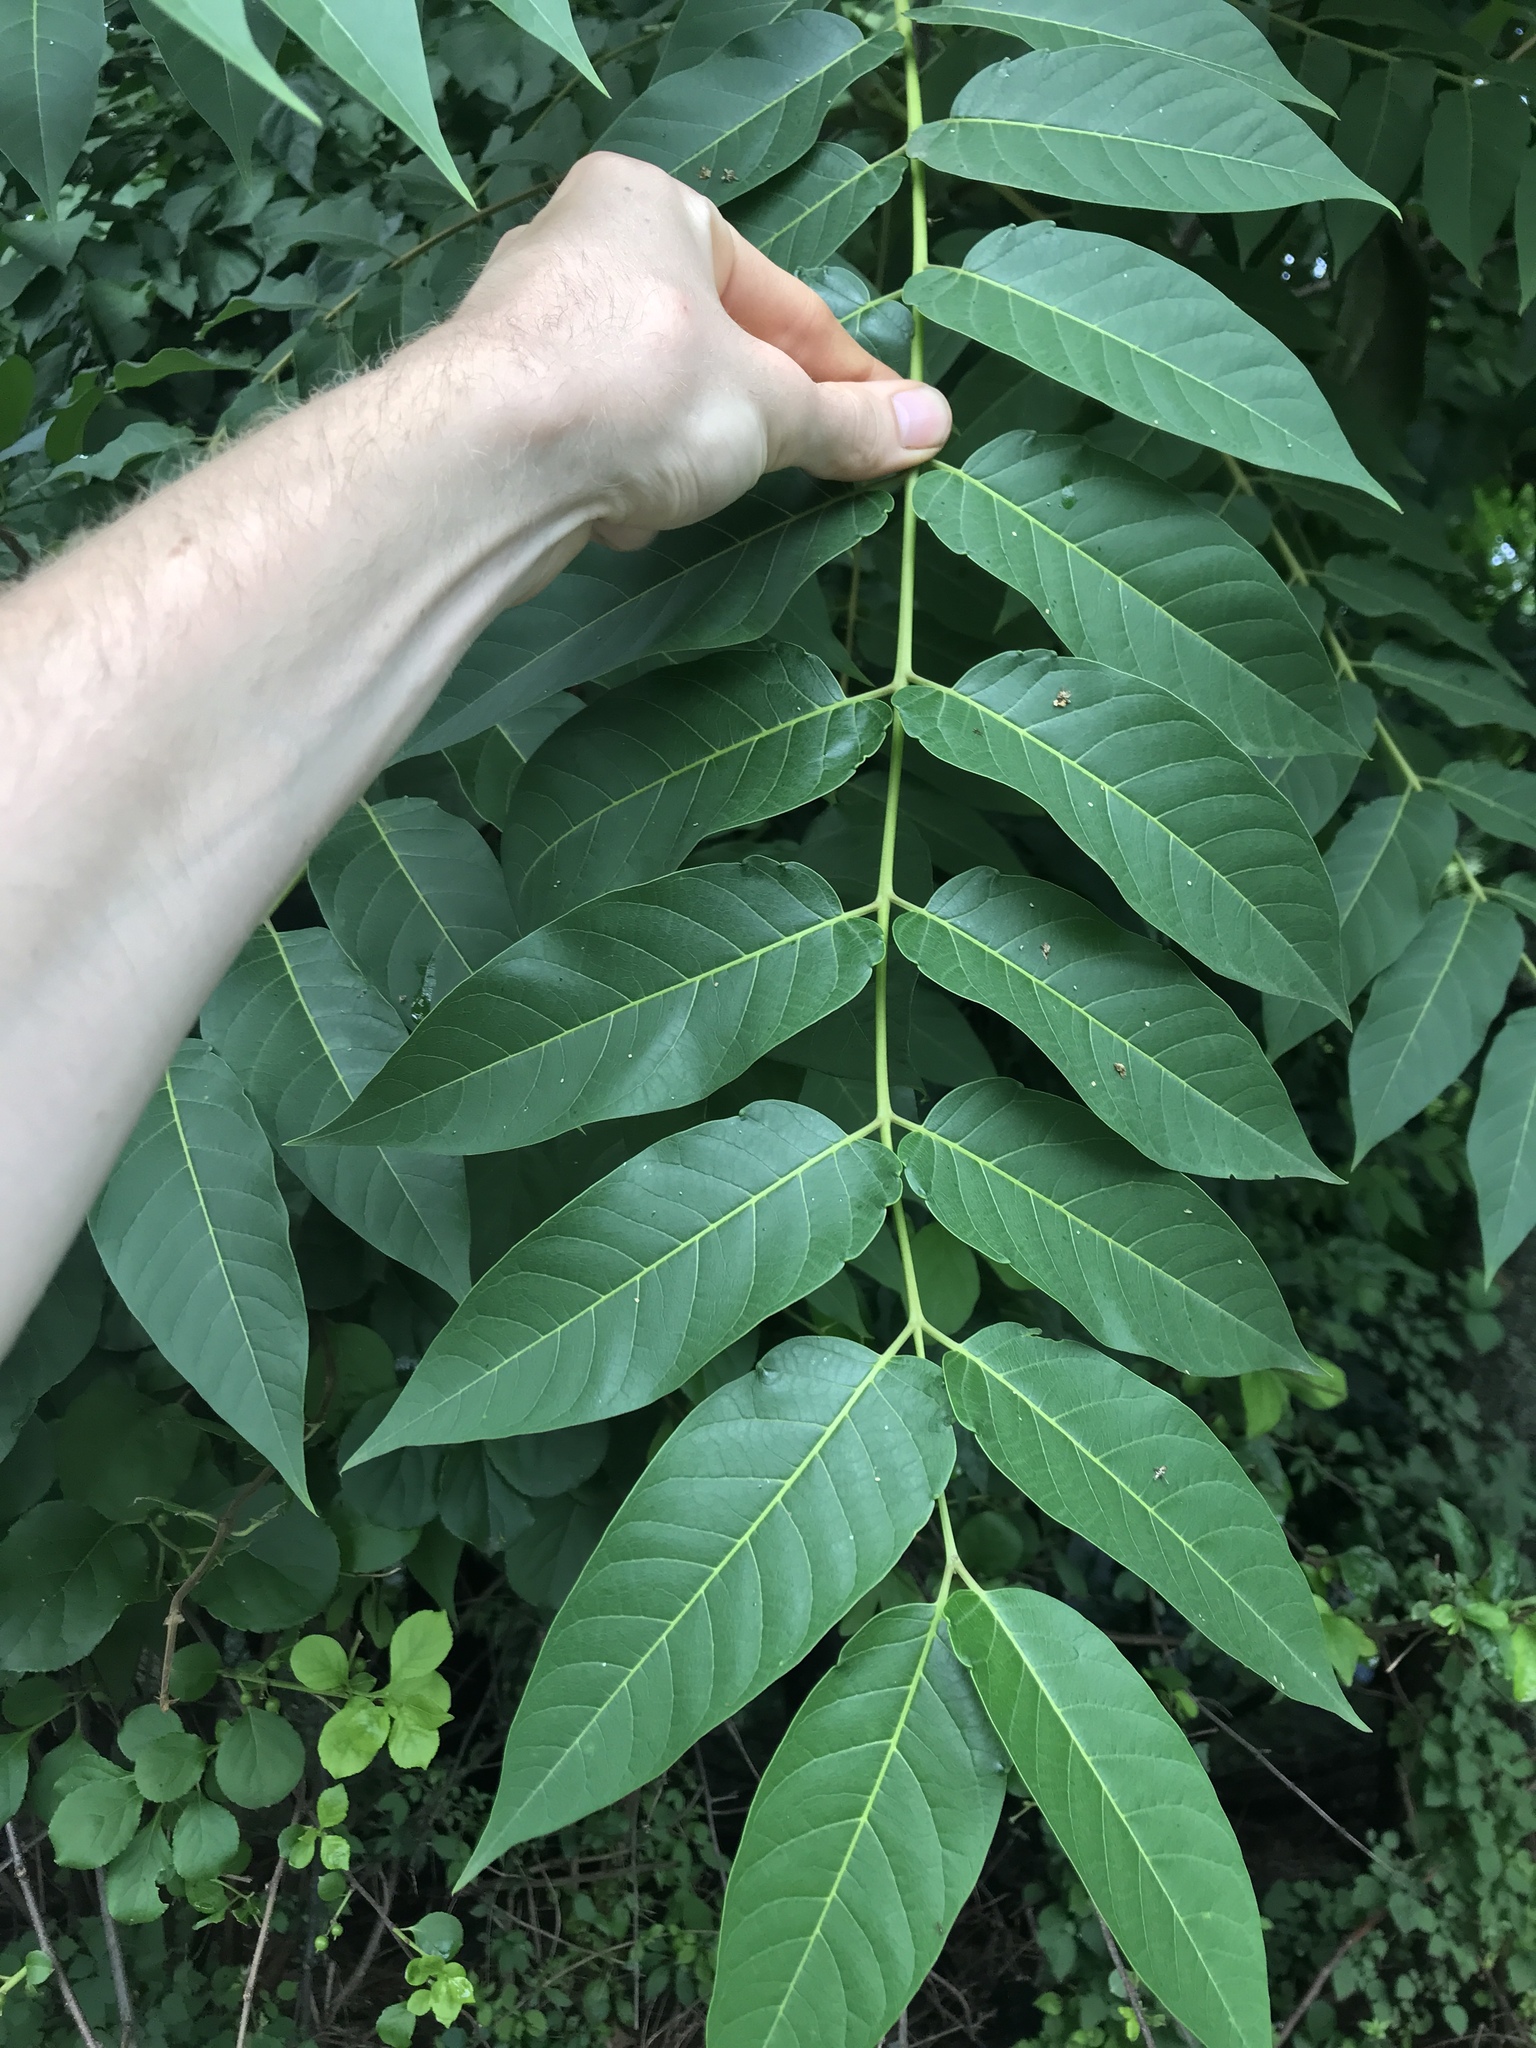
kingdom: Plantae
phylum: Tracheophyta
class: Magnoliopsida
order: Sapindales
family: Simaroubaceae
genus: Ailanthus
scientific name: Ailanthus altissima
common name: Tree-of-heaven
